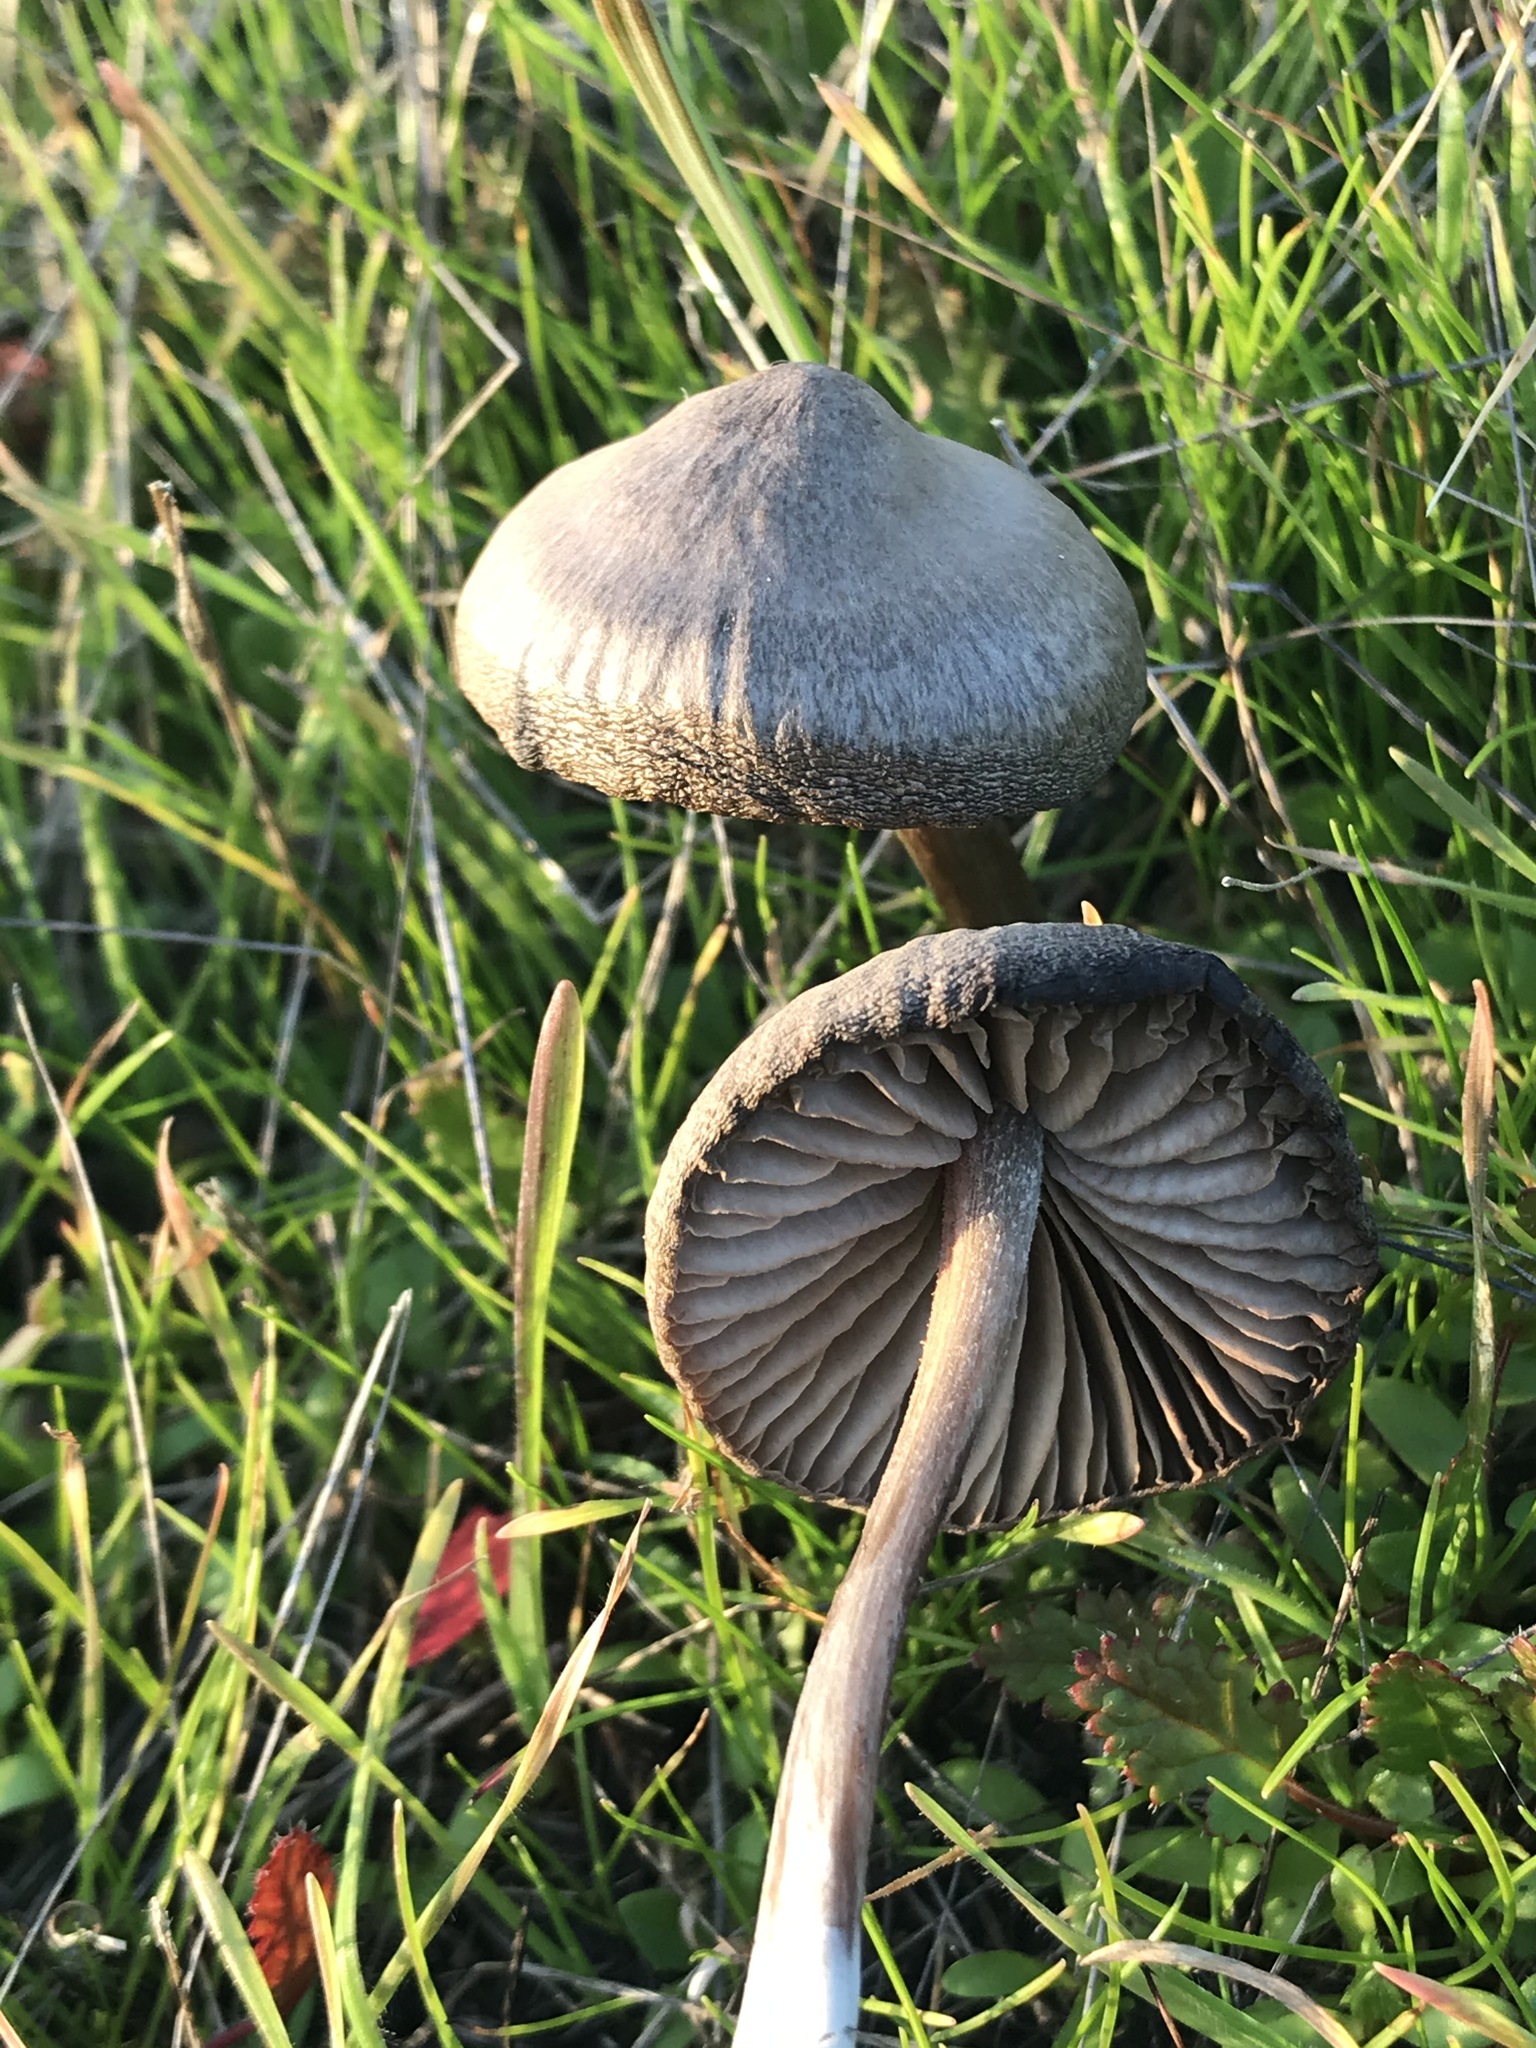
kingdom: Fungi
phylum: Basidiomycota
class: Agaricomycetes
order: Agaricales
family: Entolomataceae
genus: Entoloma
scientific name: Entoloma edulis
